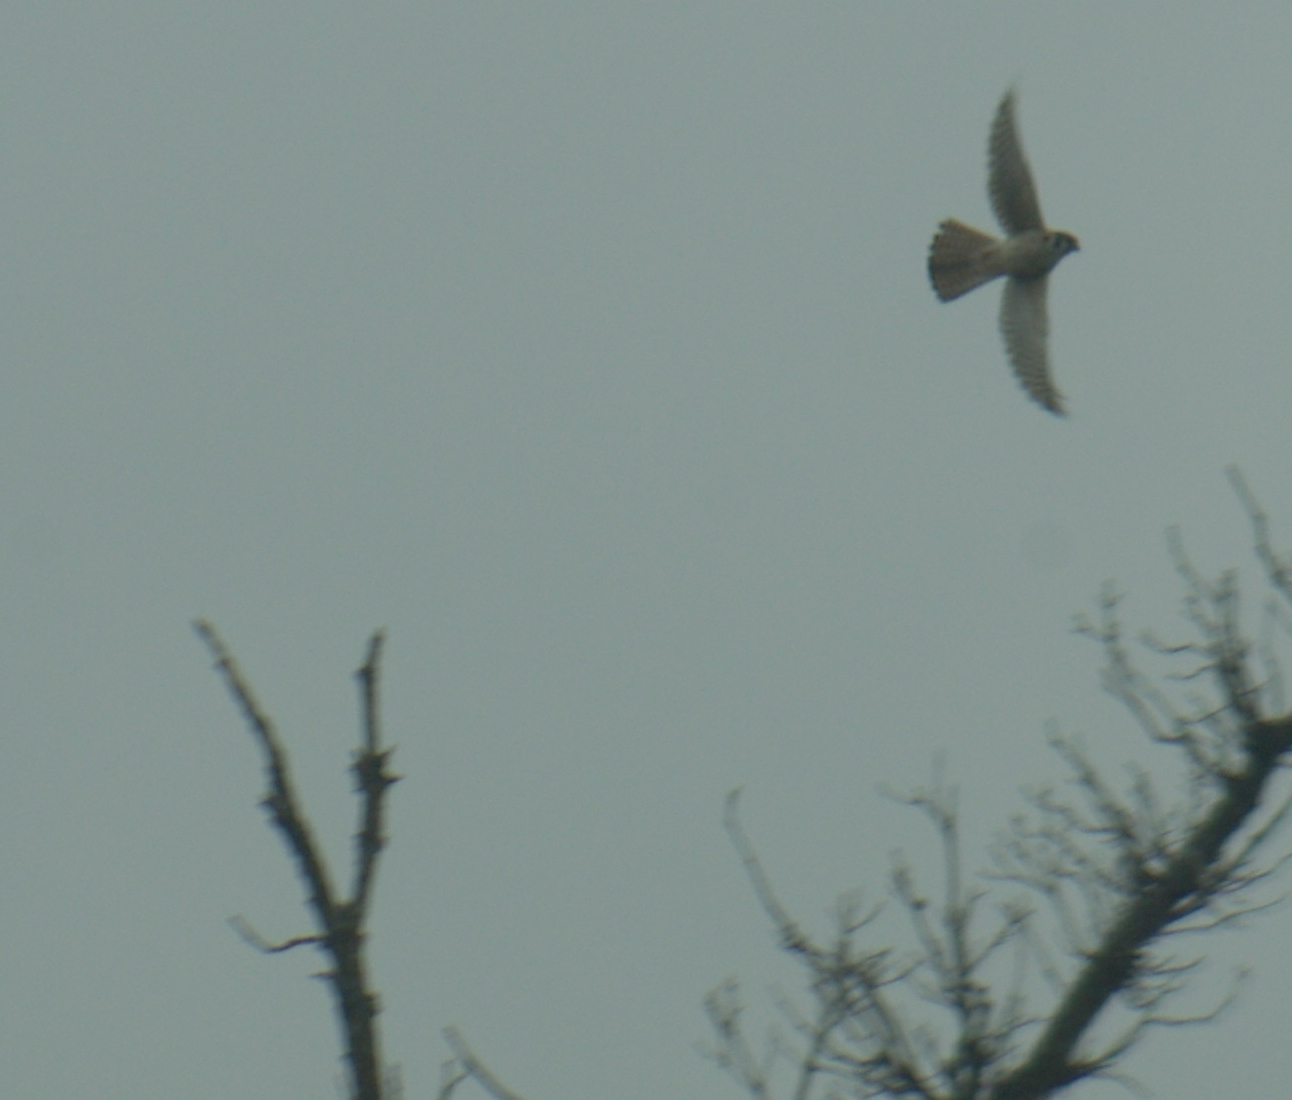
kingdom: Animalia
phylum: Chordata
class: Aves
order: Falconiformes
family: Falconidae
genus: Falco
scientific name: Falco sparverius
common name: American kestrel
